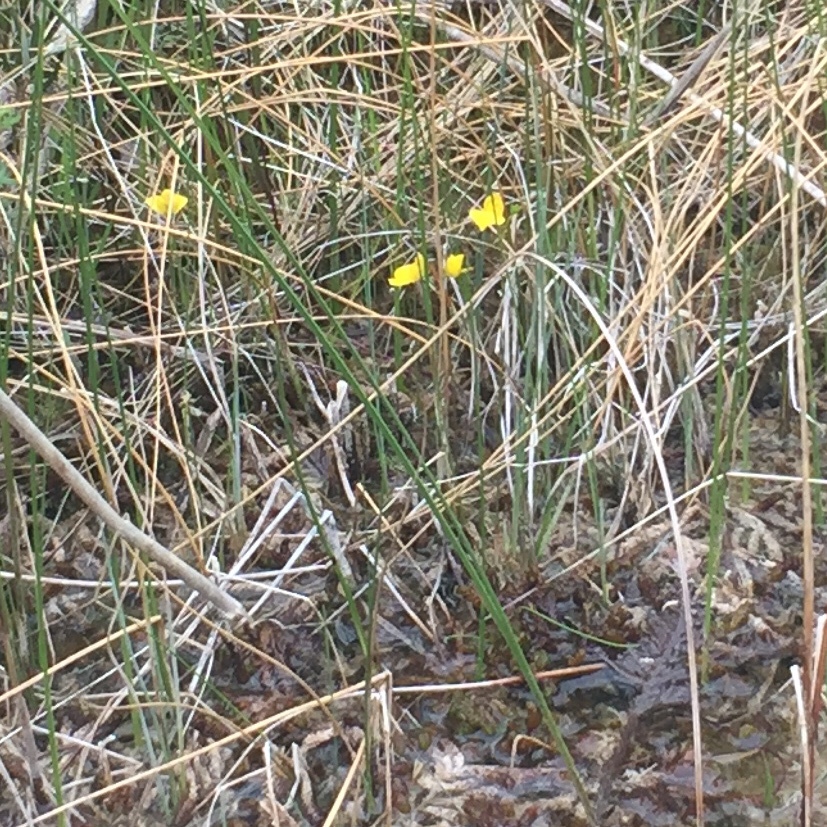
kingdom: Plantae
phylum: Tracheophyta
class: Magnoliopsida
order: Lamiales
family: Lentibulariaceae
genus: Utricularia
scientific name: Utricularia intermedia
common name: Intermediate bladderwort
